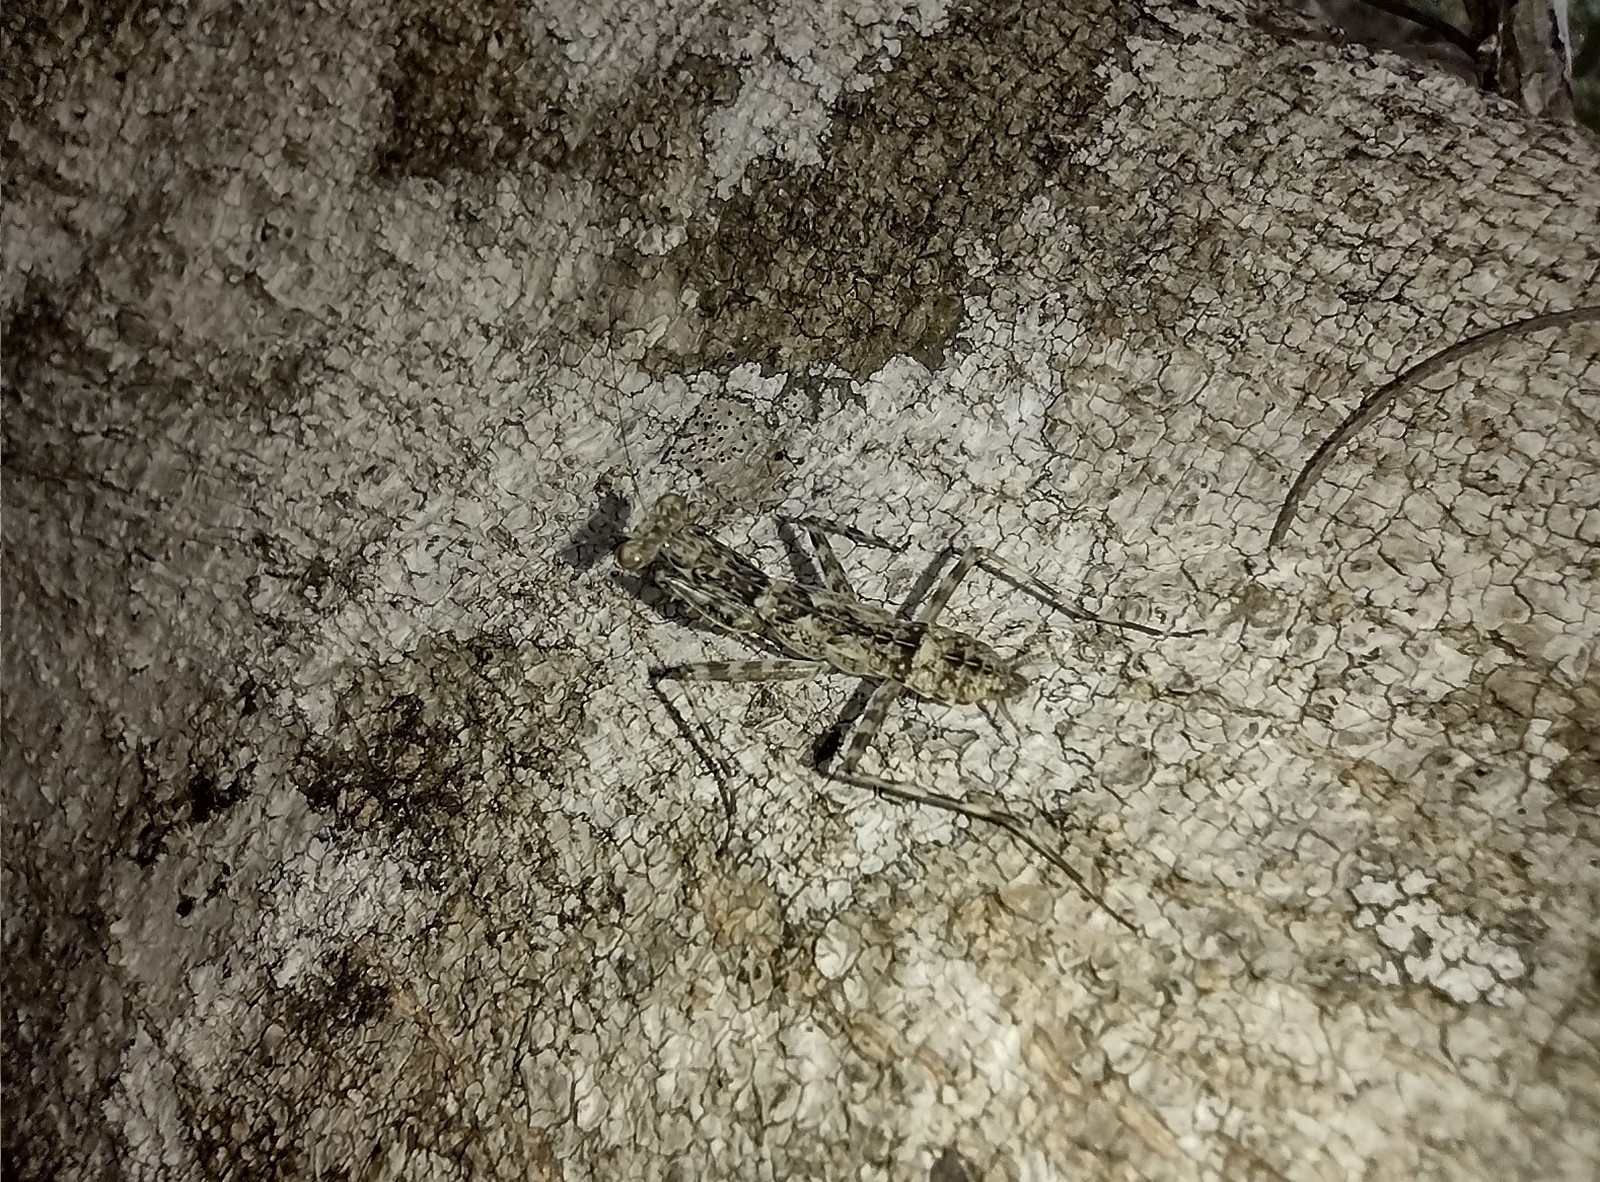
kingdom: Animalia
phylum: Arthropoda
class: Insecta
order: Mantodea
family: Liturgusidae
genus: Liturgusa
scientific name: Liturgusa maya
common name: Mantis
